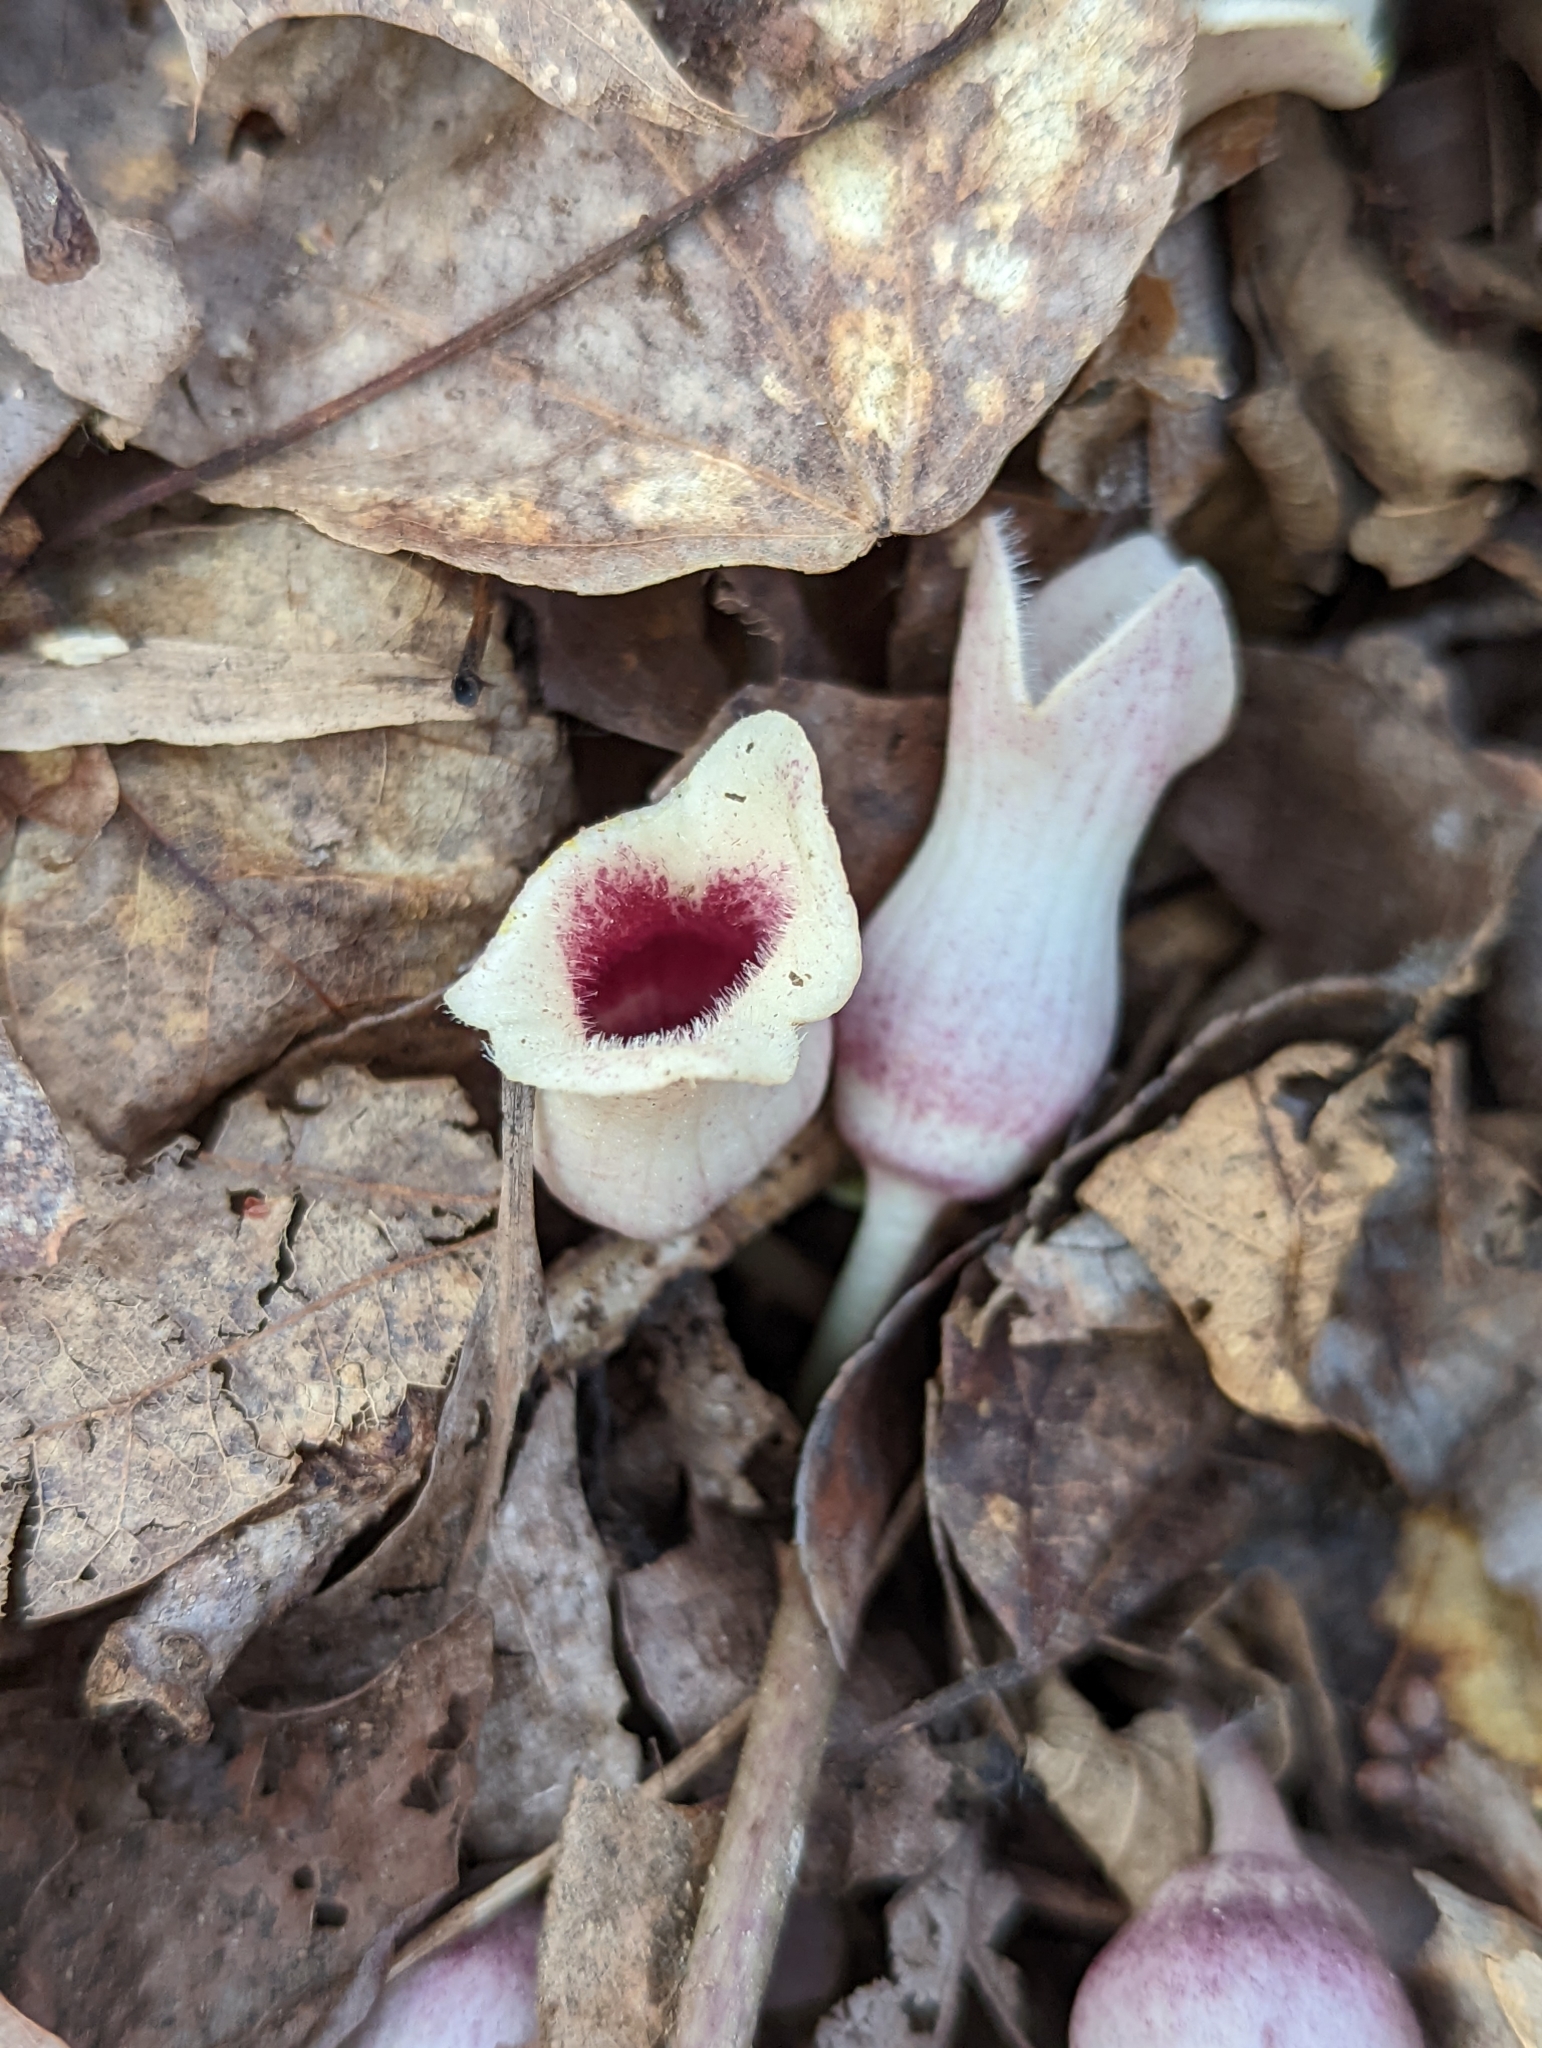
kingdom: Plantae
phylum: Tracheophyta
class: Magnoliopsida
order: Piperales
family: Aristolochiaceae
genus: Hexastylis
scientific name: Hexastylis arifolia
